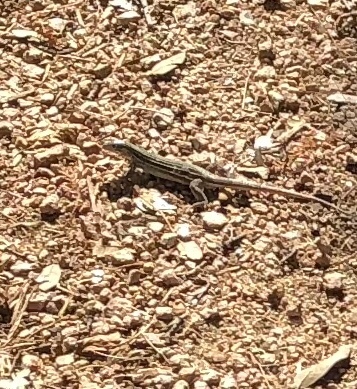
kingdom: Animalia
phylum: Chordata
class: Squamata
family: Teiidae
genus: Aspidoscelis
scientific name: Aspidoscelis gularis
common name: Eastern spotted whiptail
